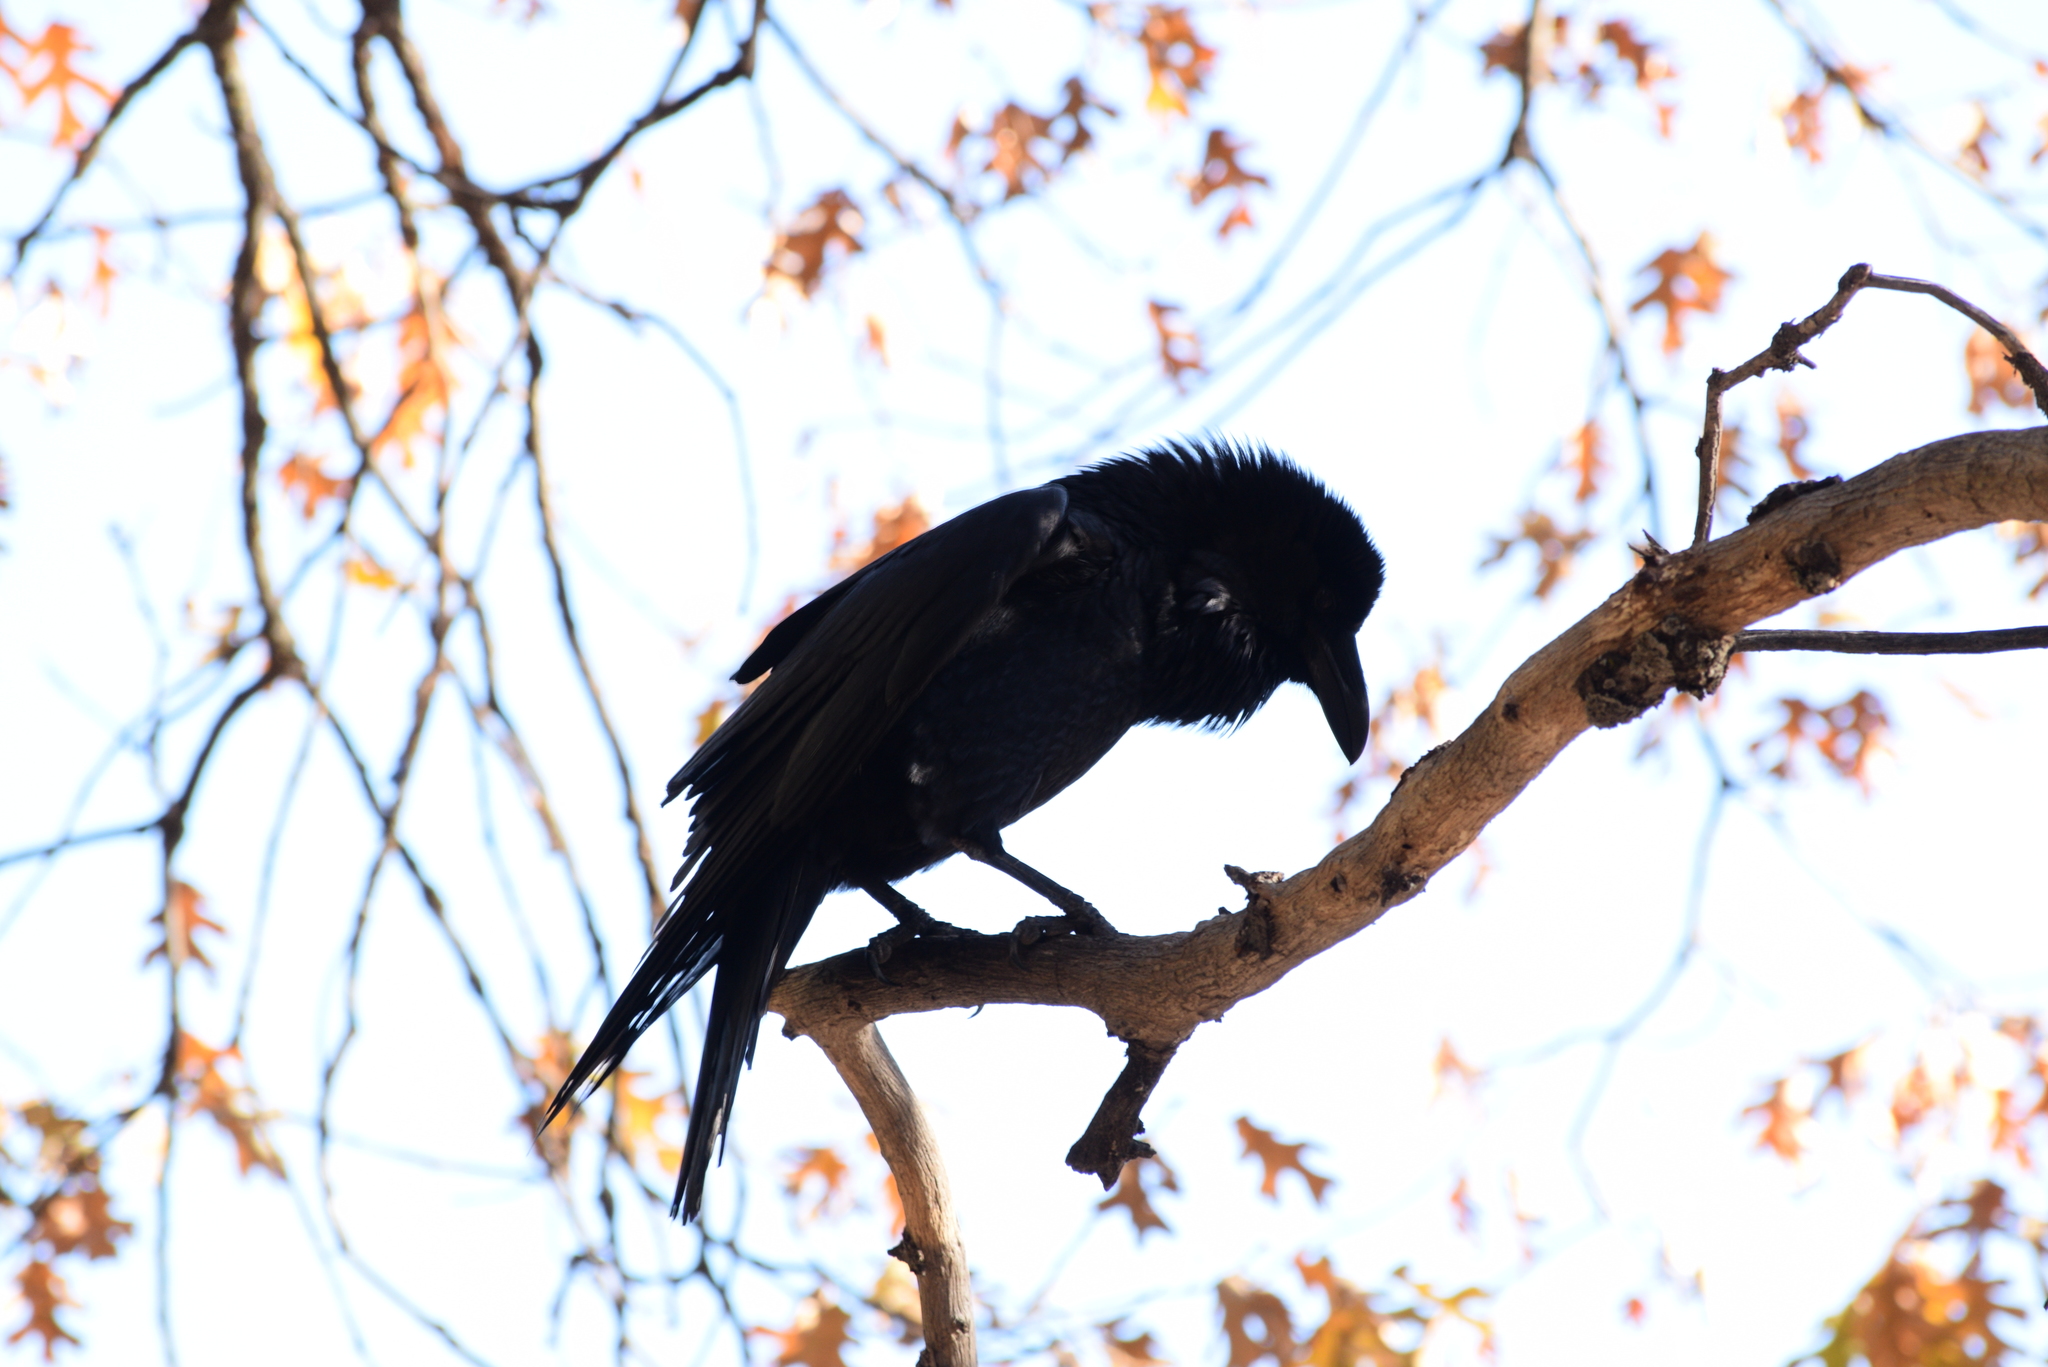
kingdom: Animalia
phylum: Chordata
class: Aves
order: Passeriformes
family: Corvidae
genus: Corvus
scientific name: Corvus corax
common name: Common raven
